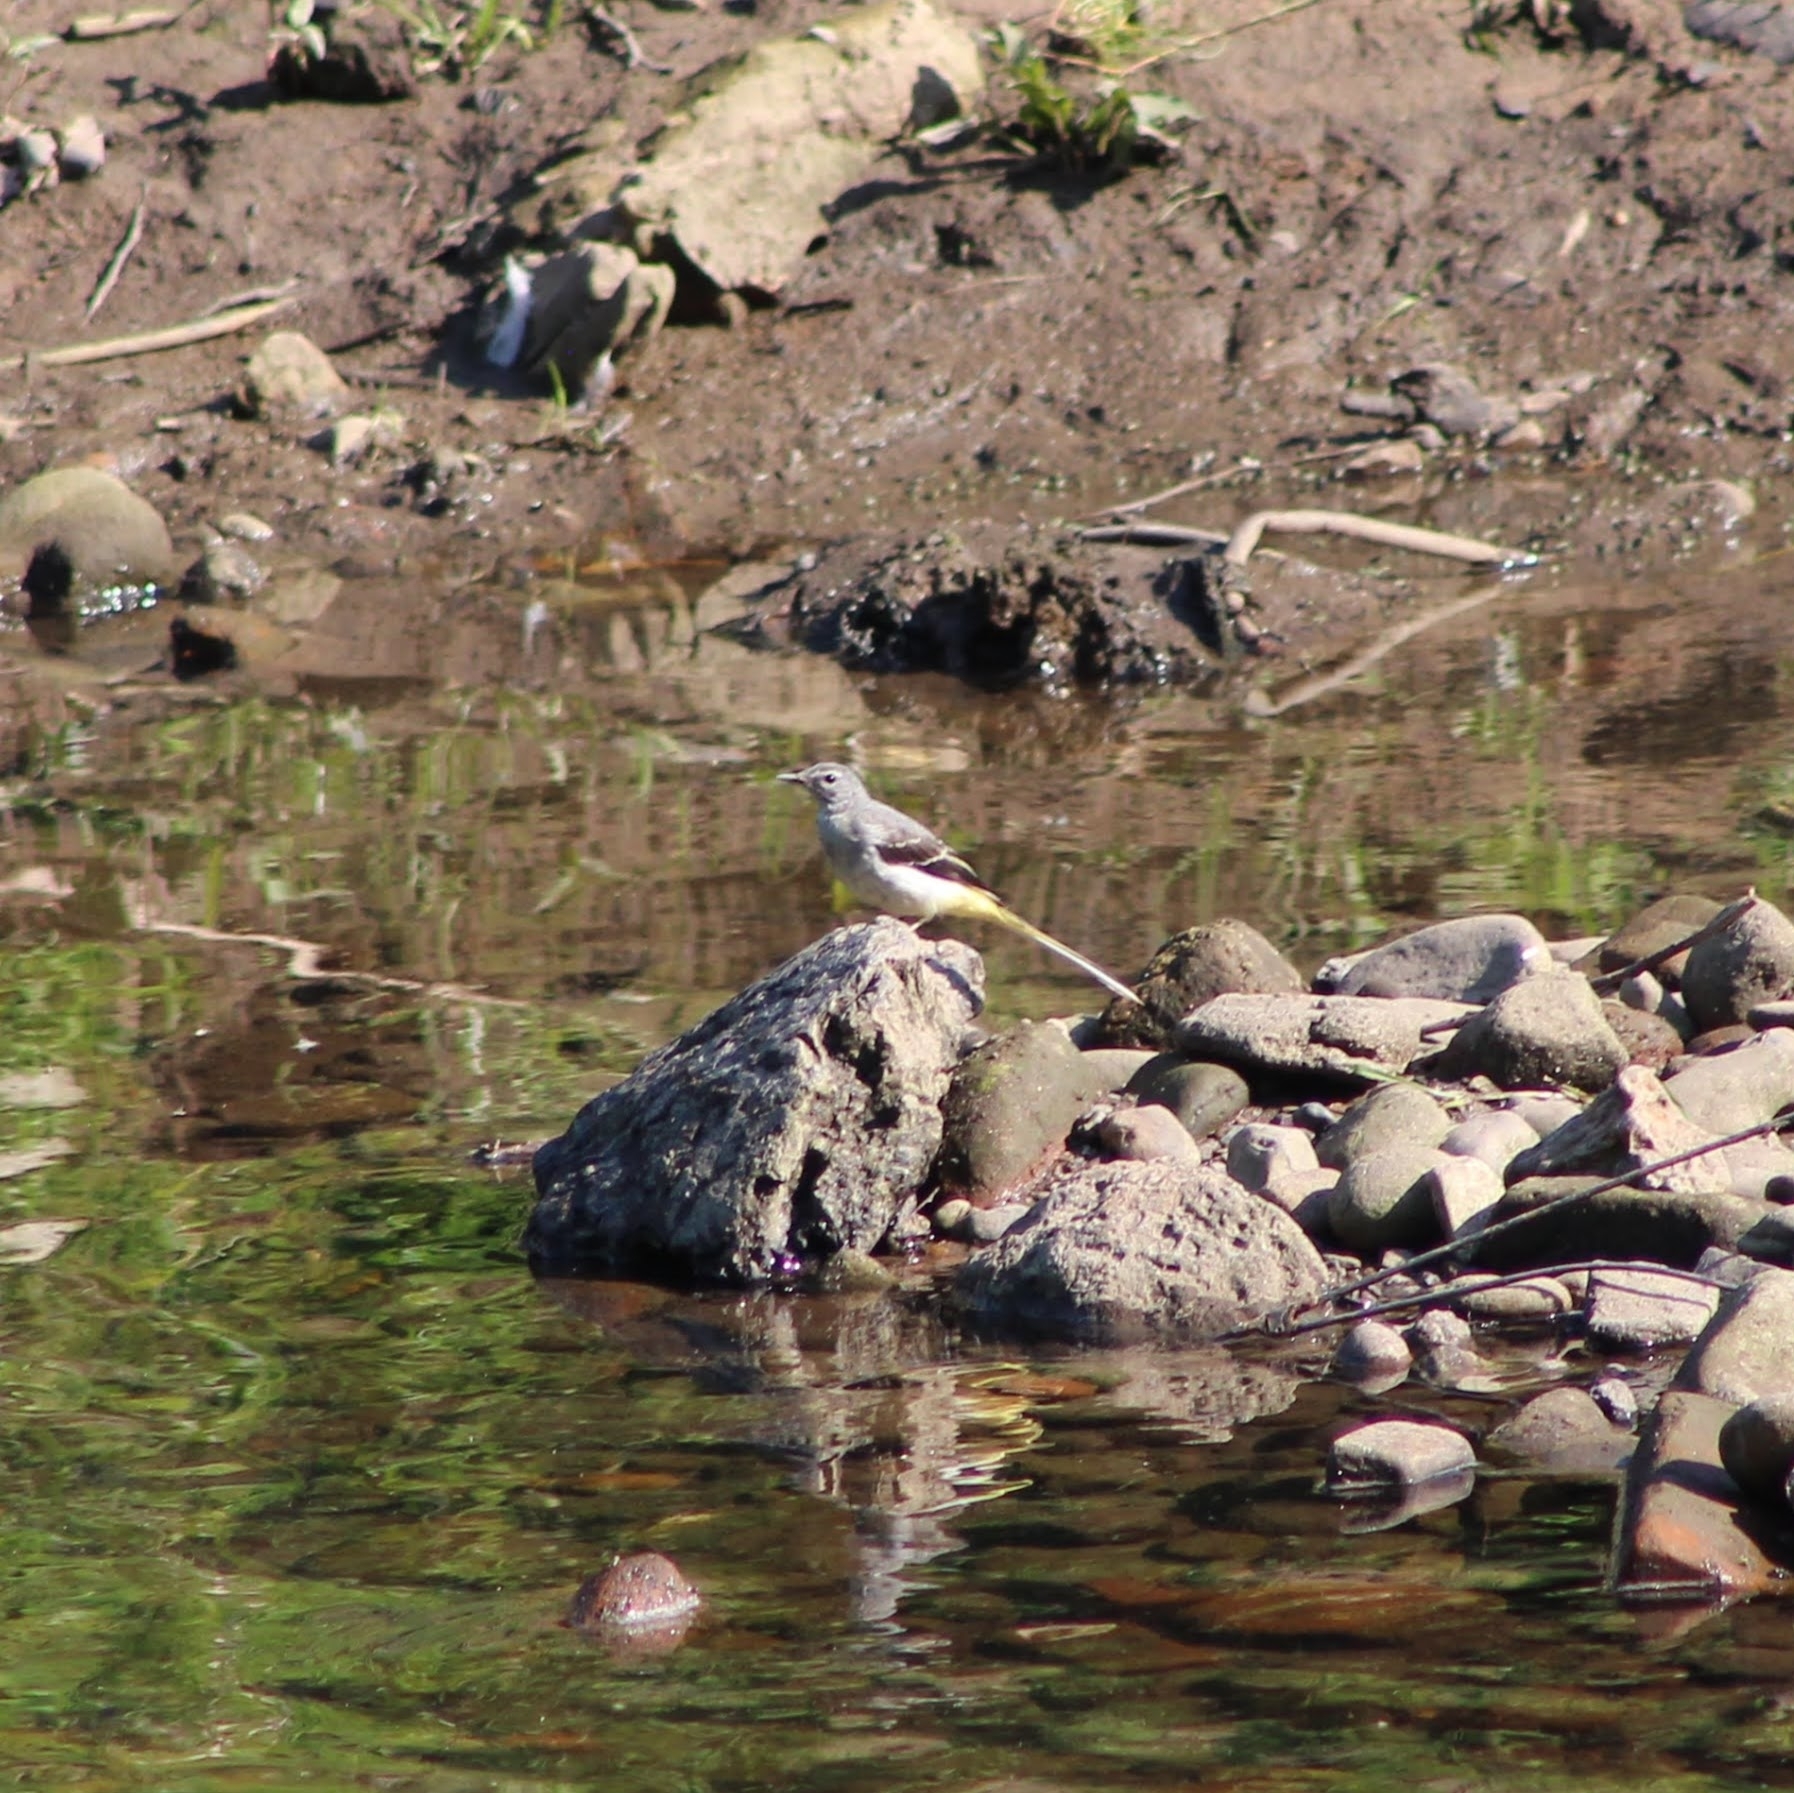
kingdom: Animalia
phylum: Chordata
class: Aves
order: Passeriformes
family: Motacillidae
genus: Motacilla
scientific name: Motacilla cinerea
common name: Grey wagtail
